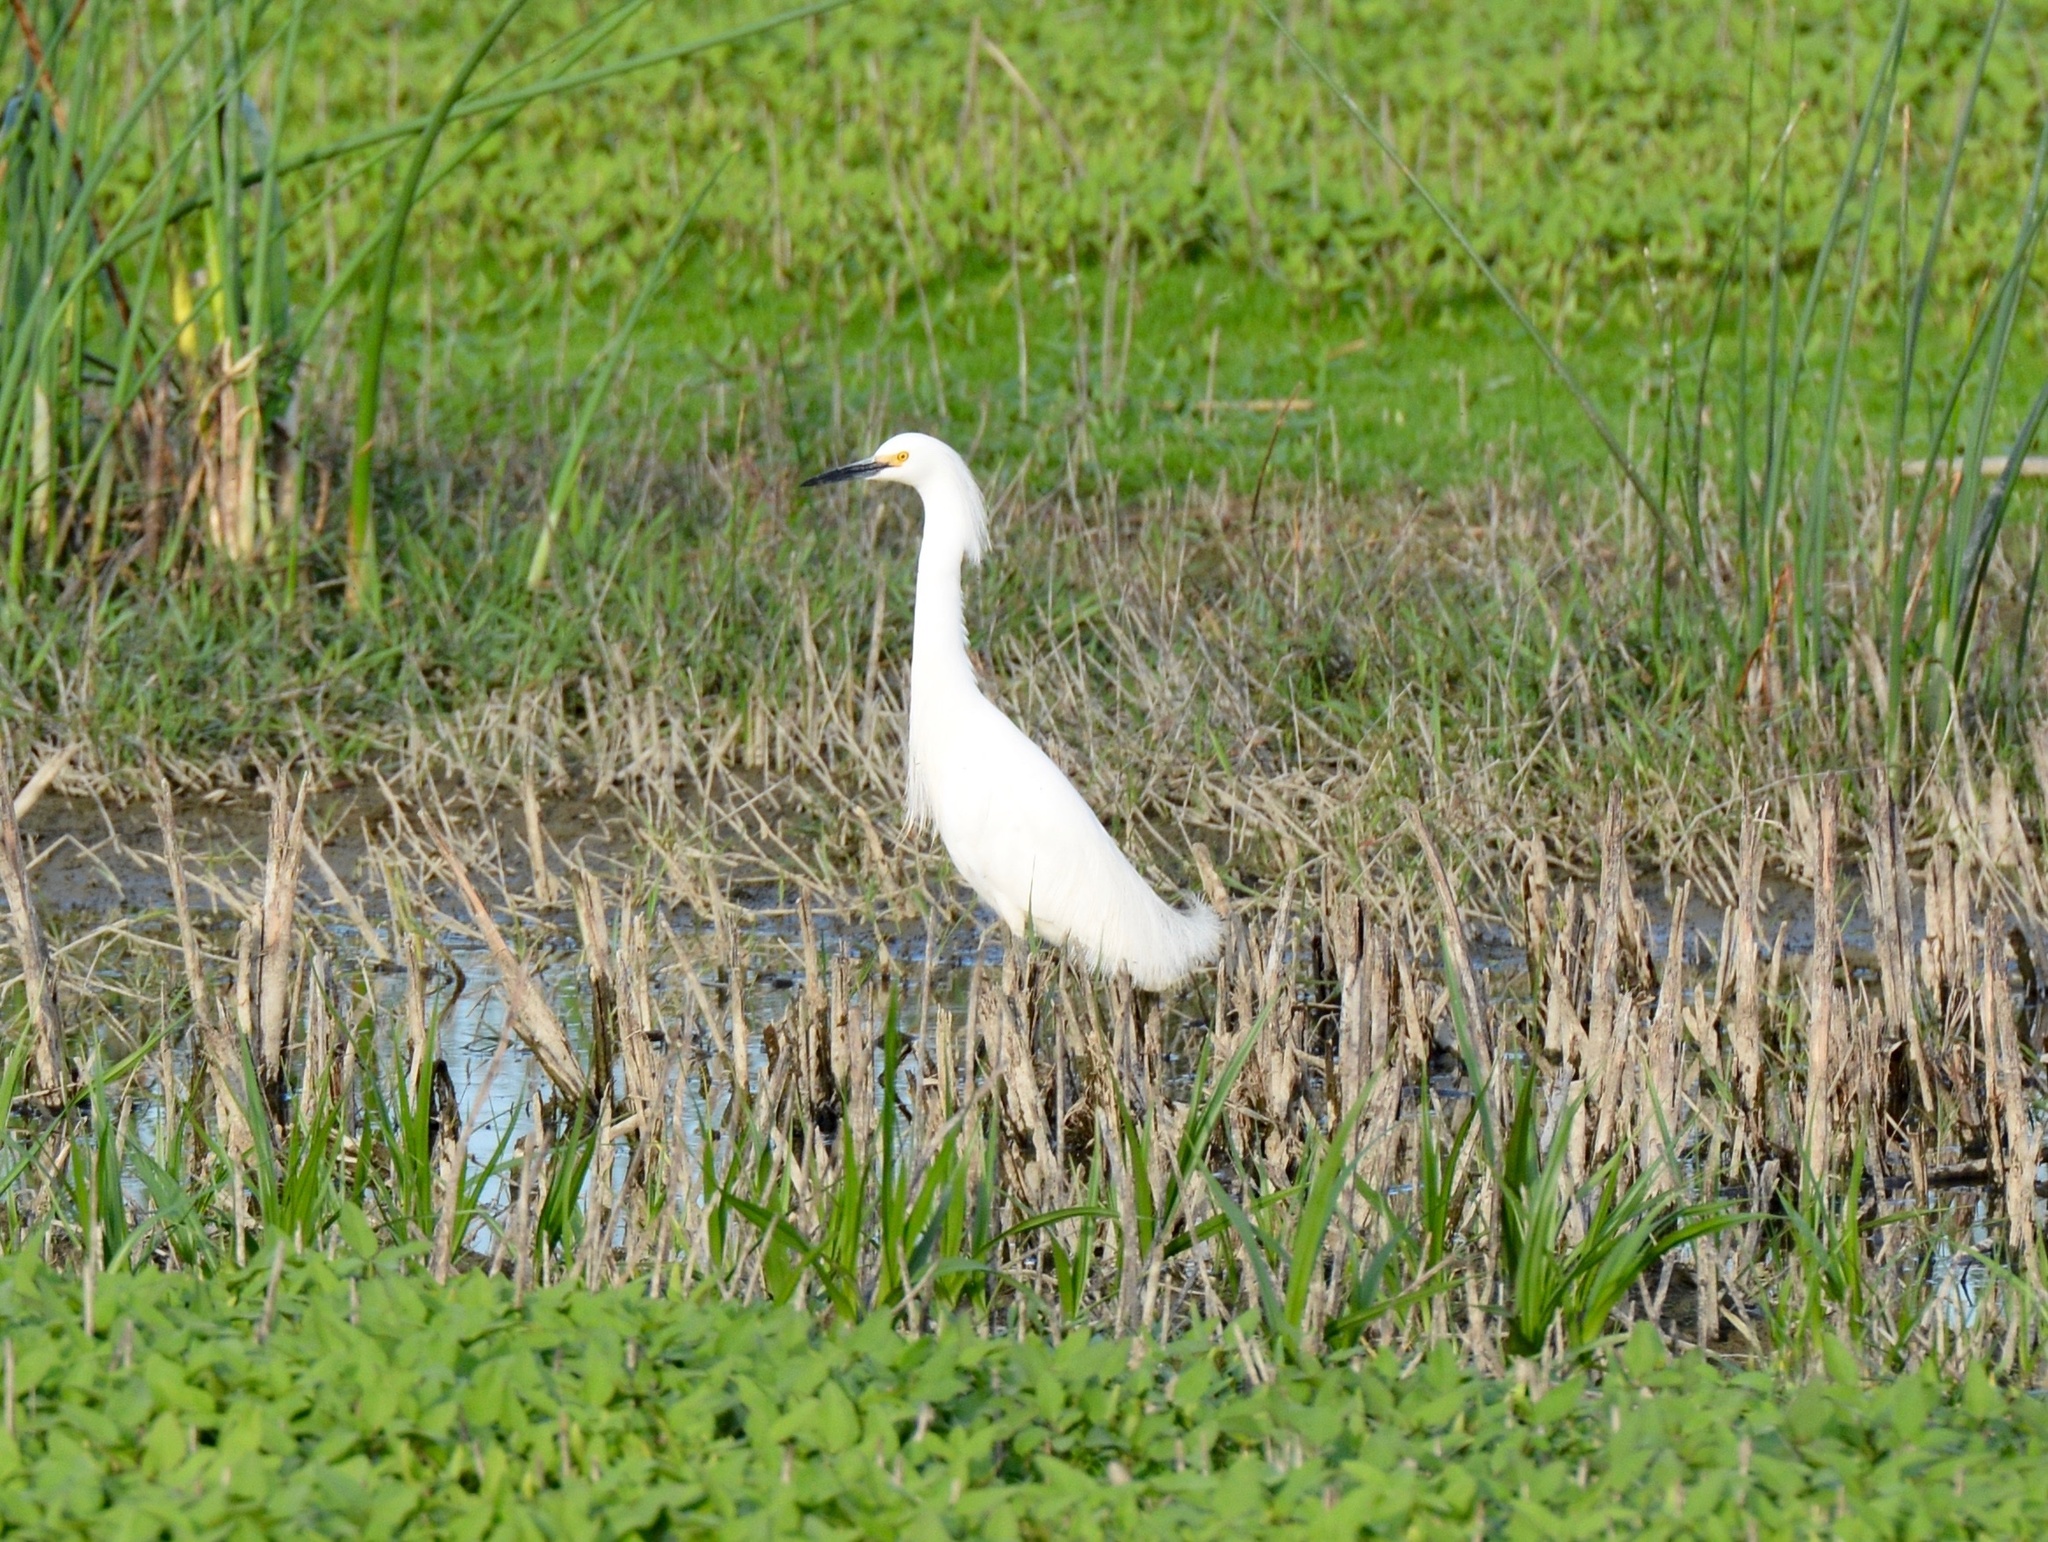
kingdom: Animalia
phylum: Chordata
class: Aves
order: Pelecaniformes
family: Ardeidae
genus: Egretta
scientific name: Egretta thula
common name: Snowy egret
